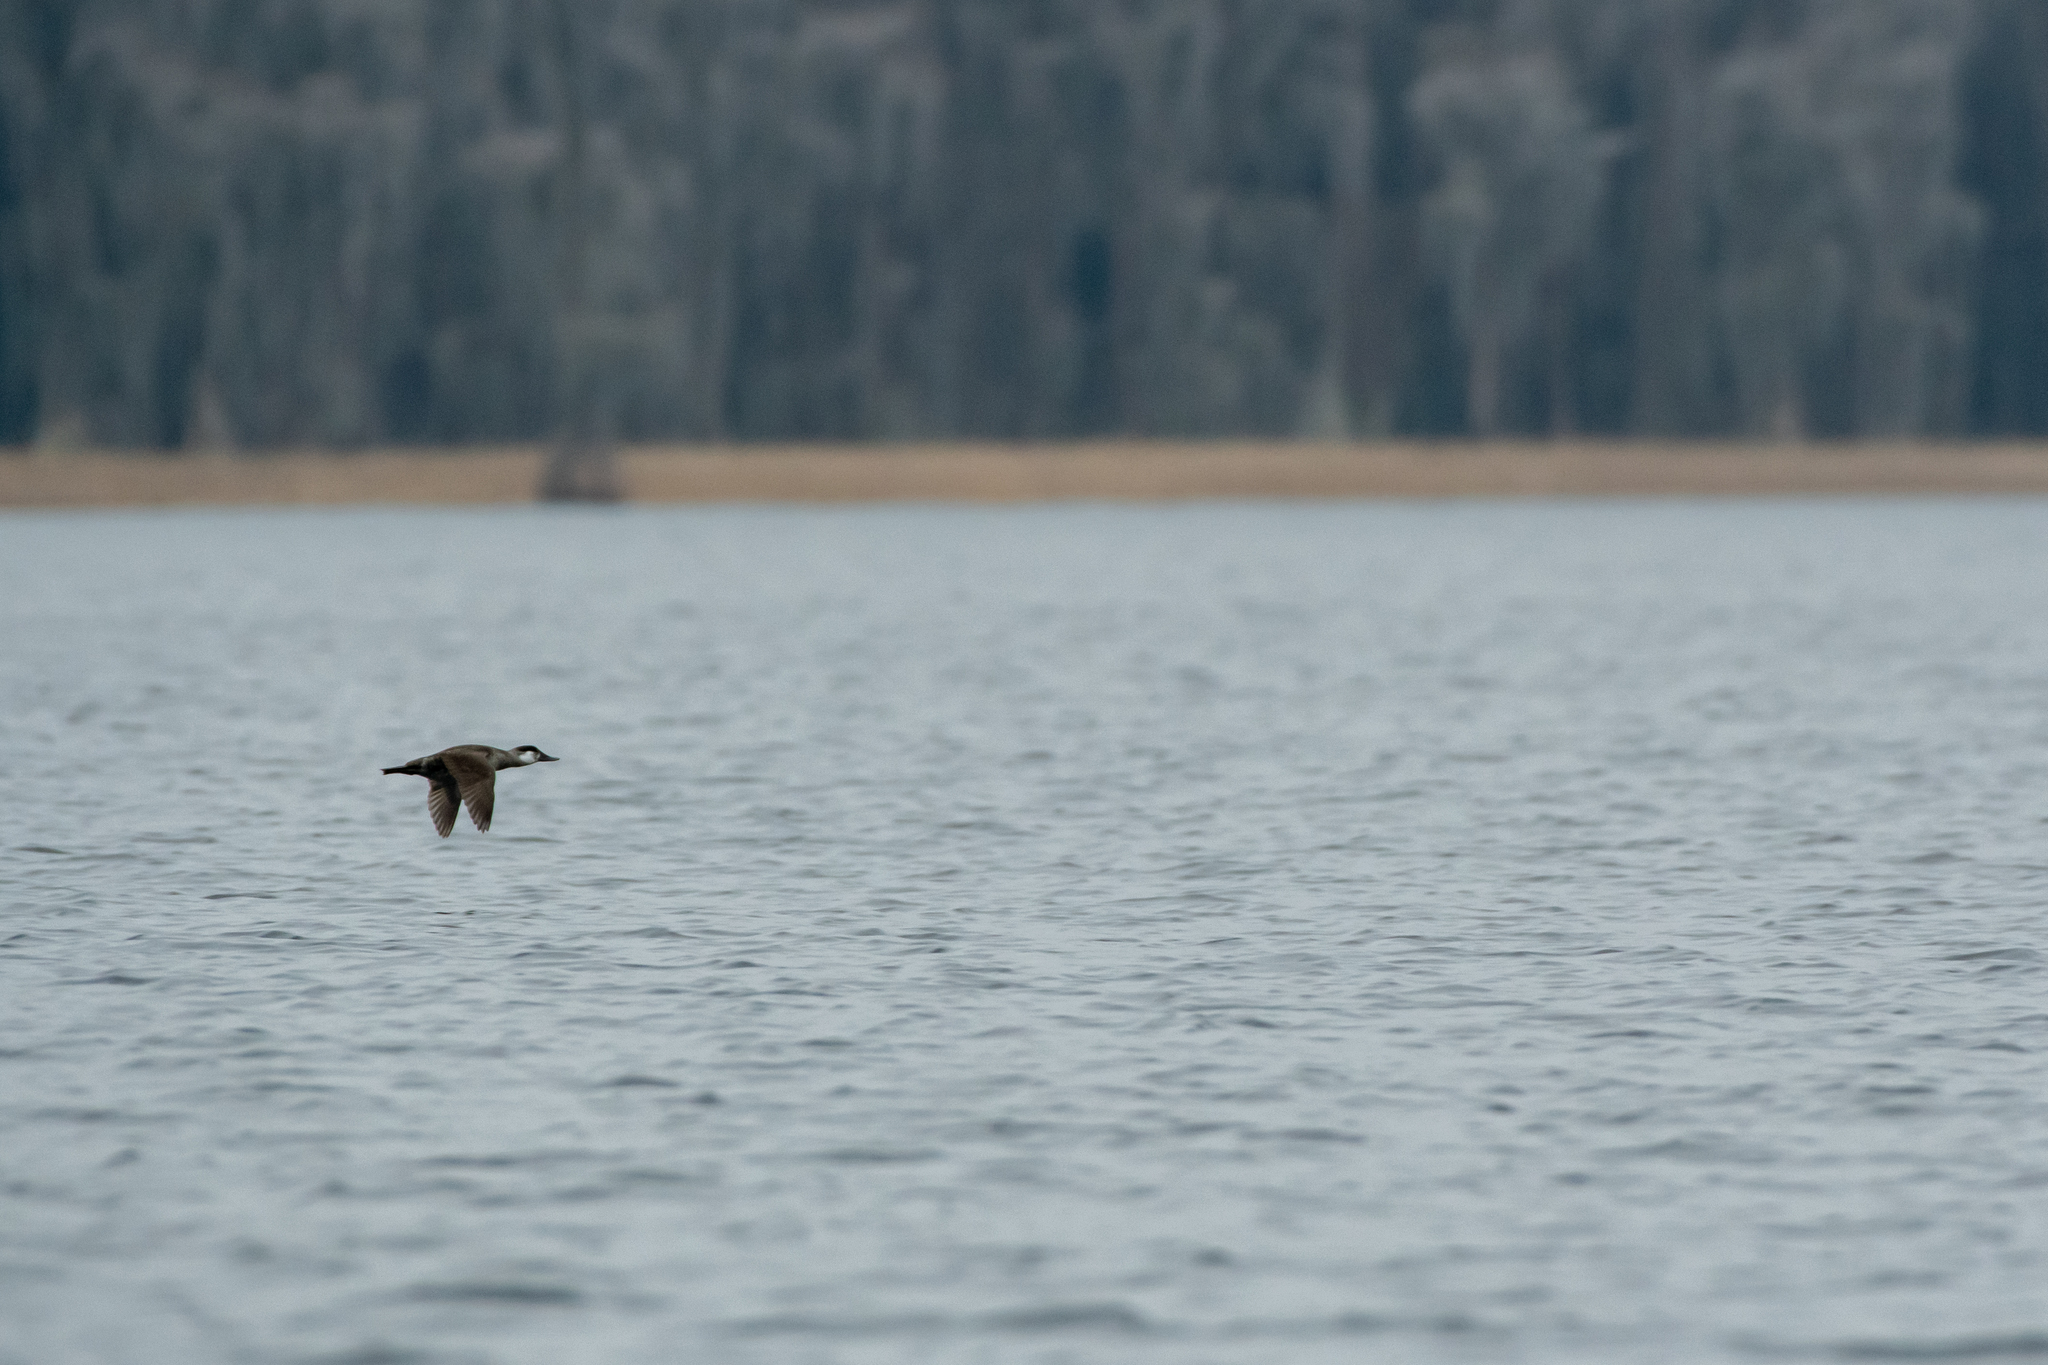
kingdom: Animalia
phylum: Chordata
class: Aves
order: Anseriformes
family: Anatidae
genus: Oxyura
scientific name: Oxyura jamaicensis
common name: Ruddy duck
